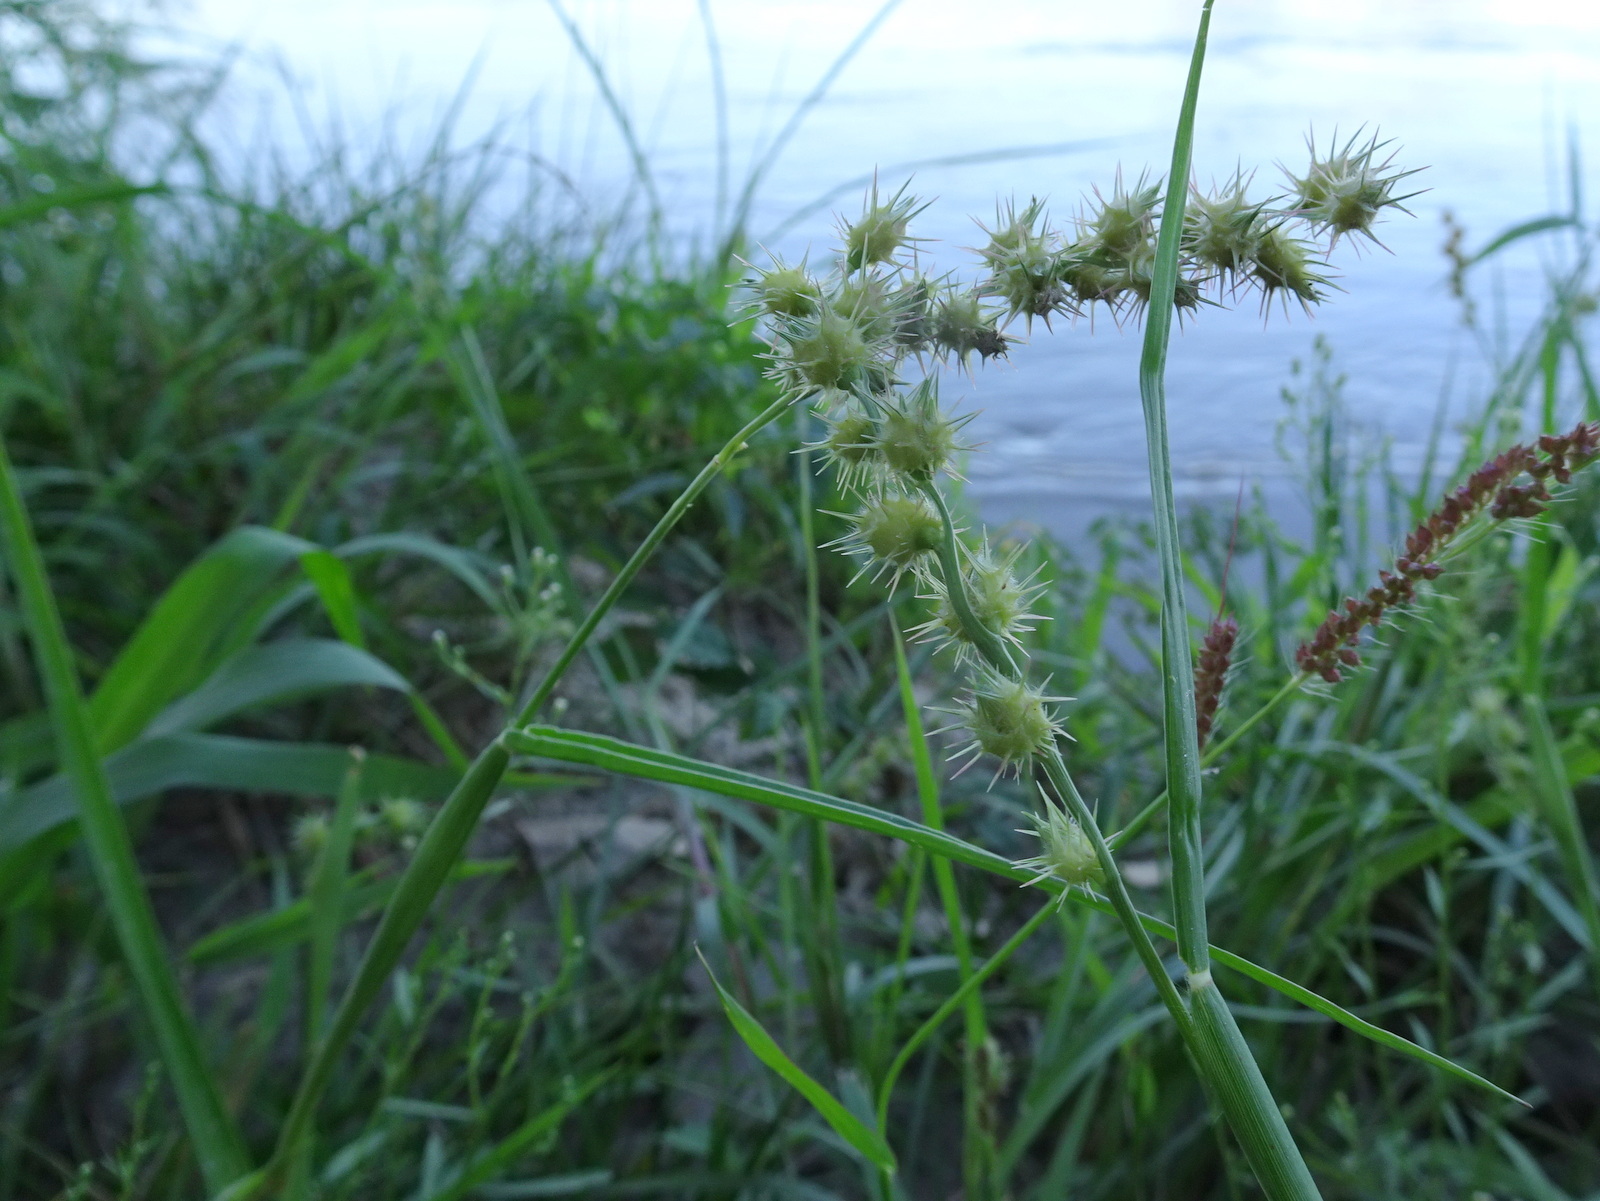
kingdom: Plantae
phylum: Tracheophyta
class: Liliopsida
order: Poales
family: Poaceae
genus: Cenchrus
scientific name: Cenchrus longispinus
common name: Mat sandbur
